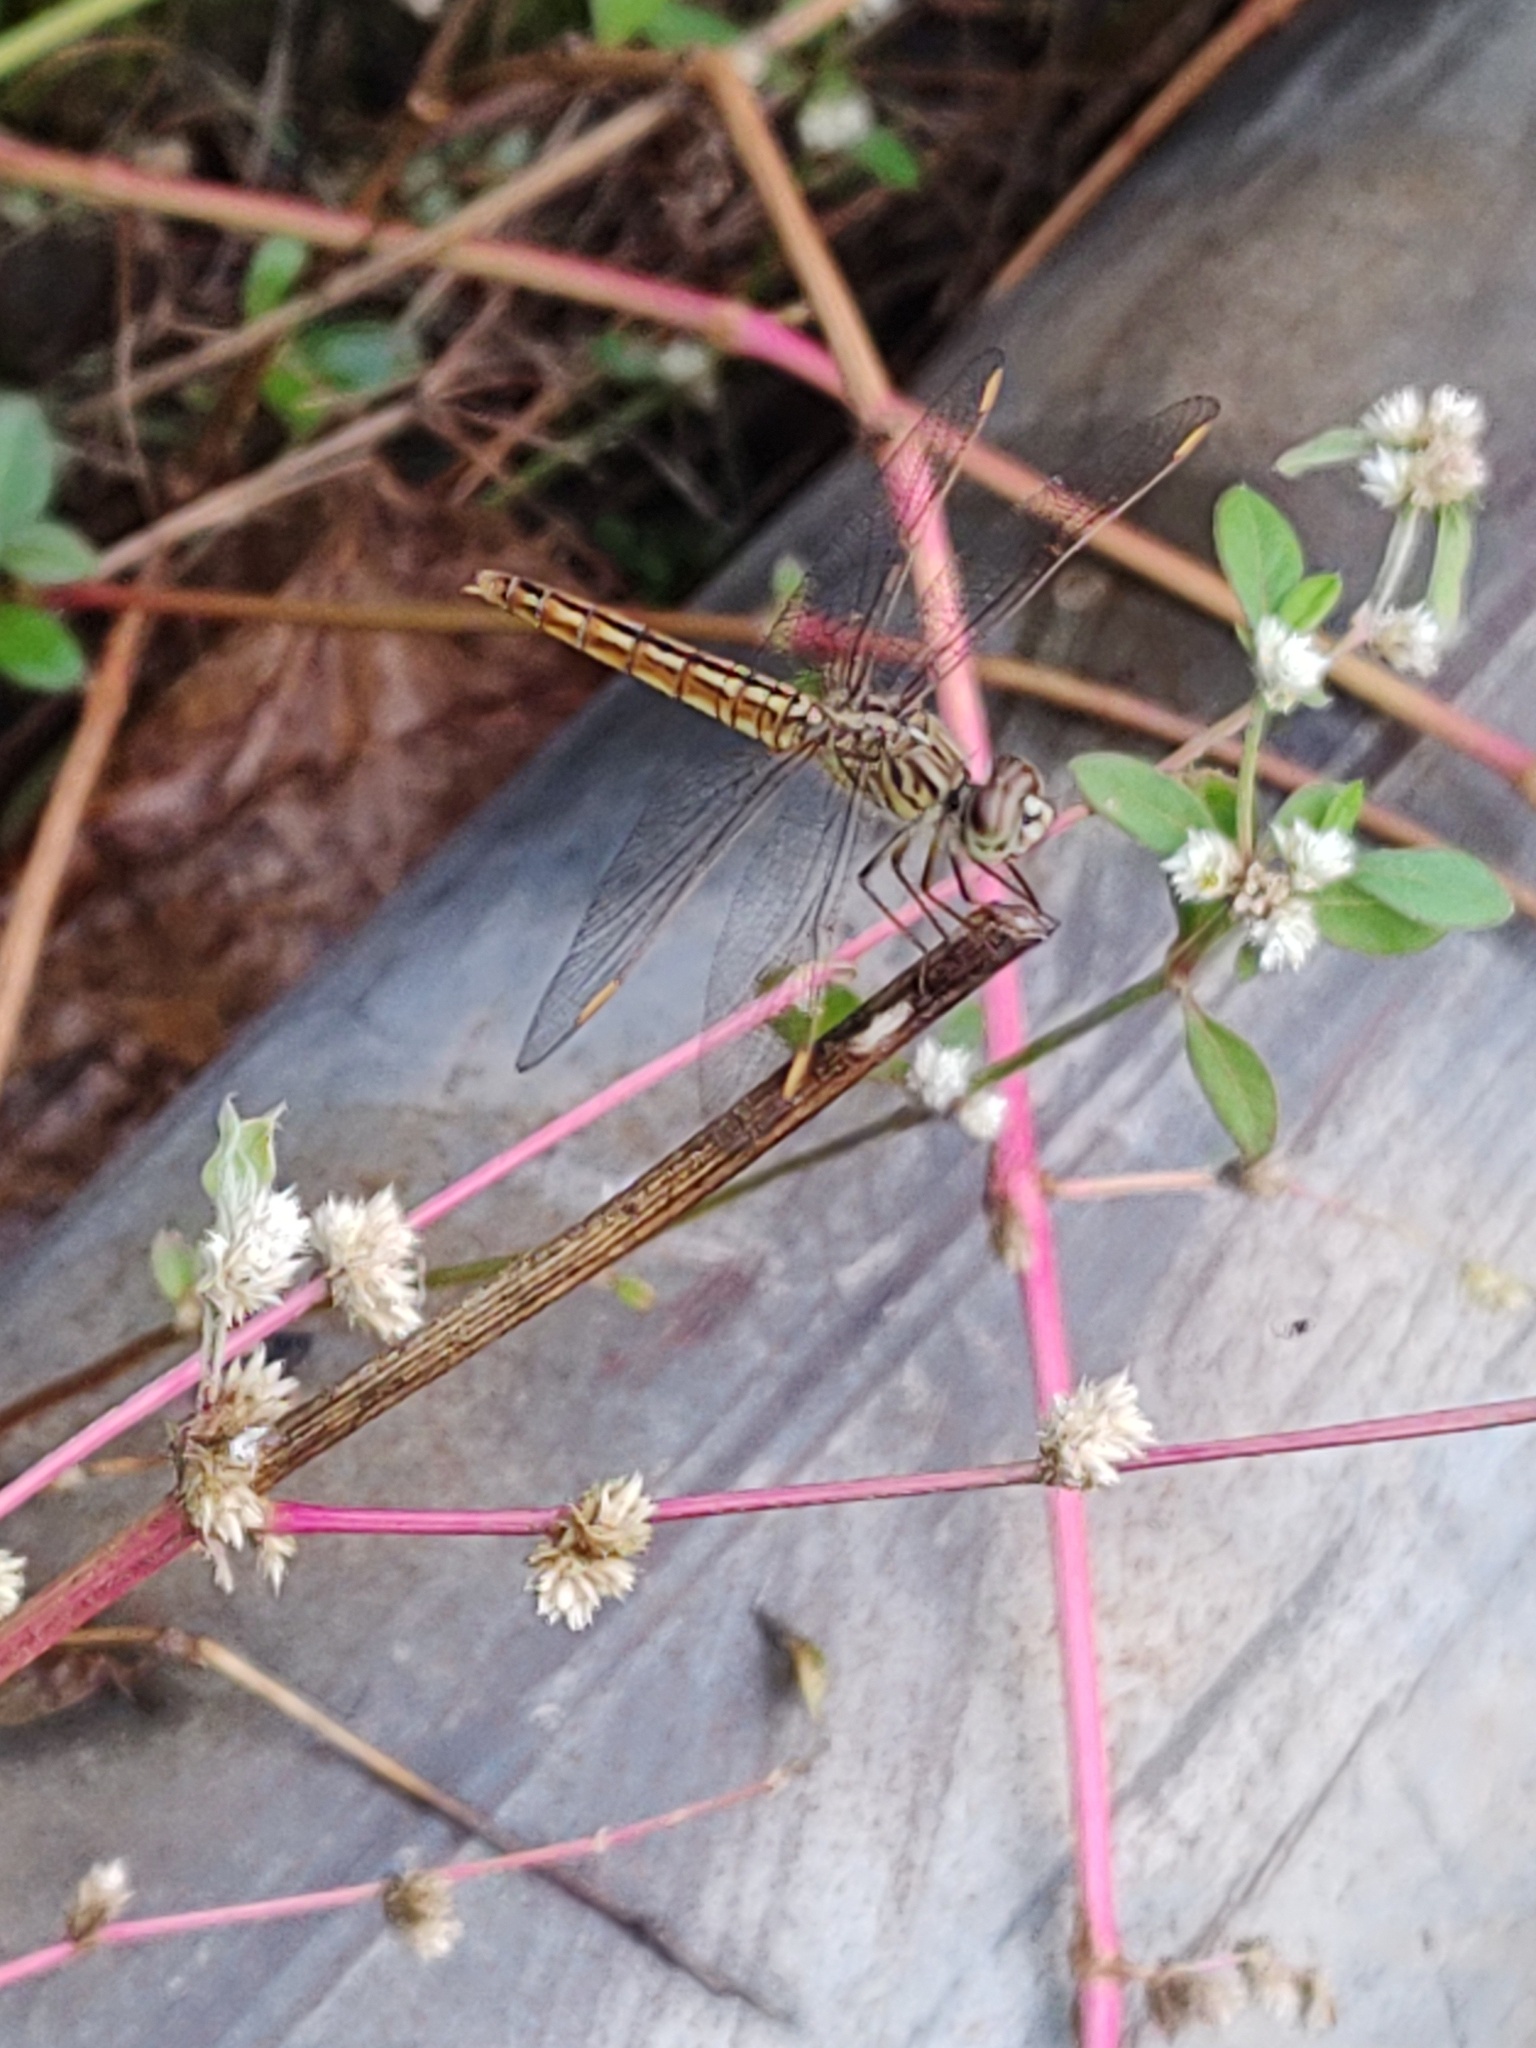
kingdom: Animalia
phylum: Arthropoda
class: Insecta
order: Odonata
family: Libellulidae
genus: Brachythemis
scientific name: Brachythemis contaminata
